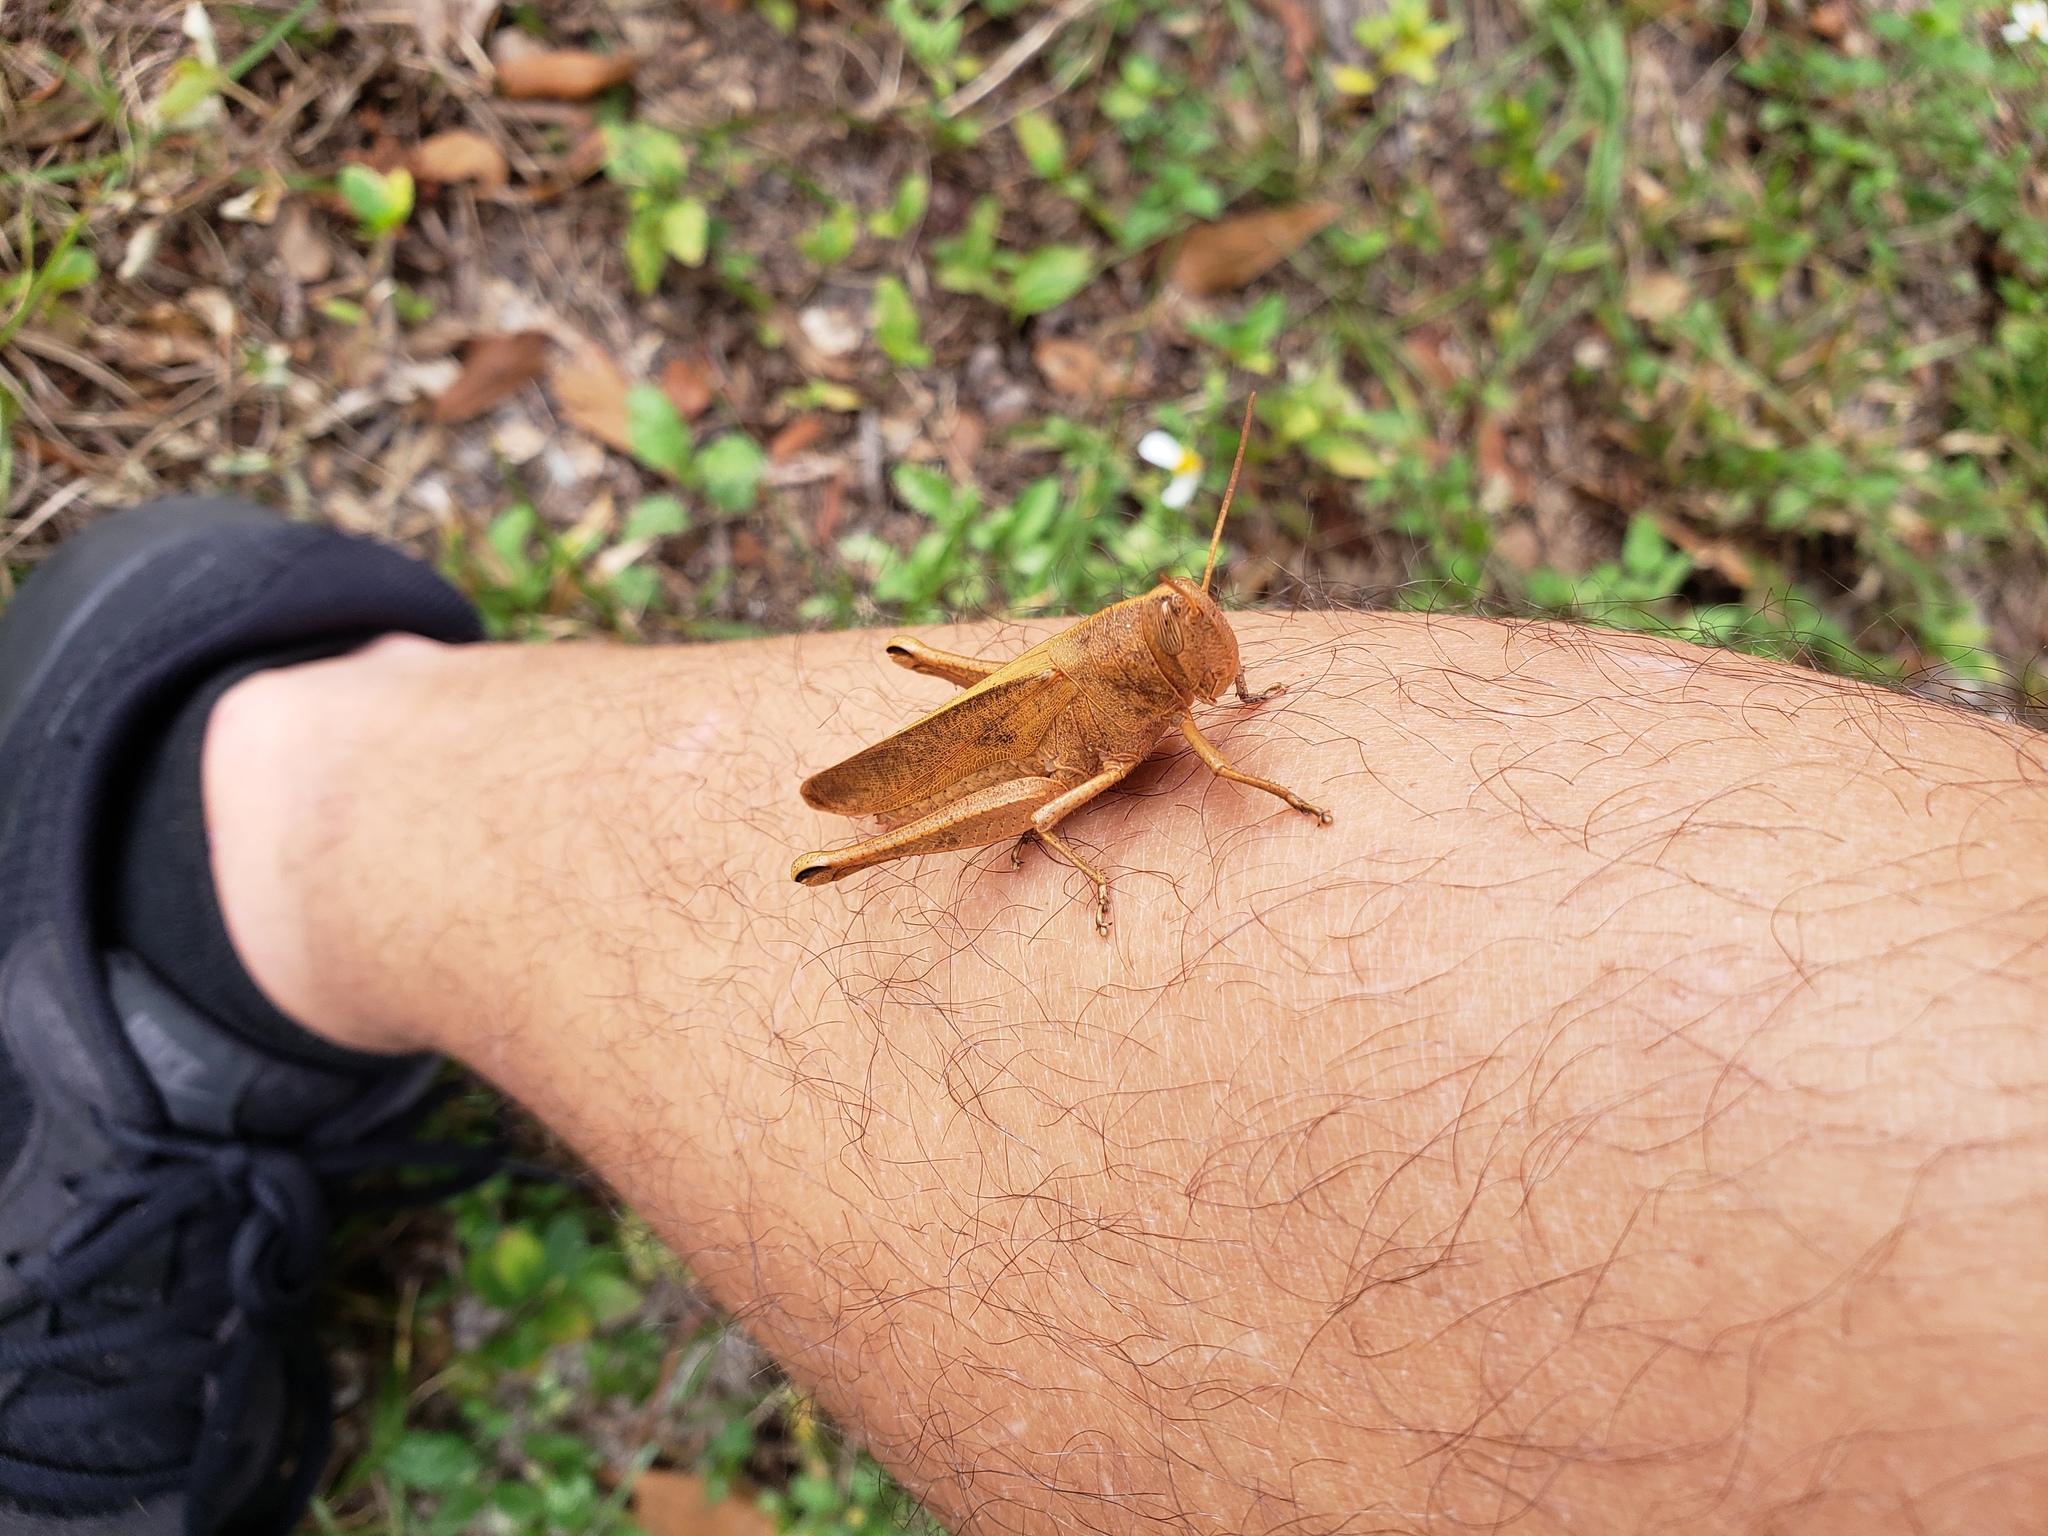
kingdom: Animalia
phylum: Arthropoda
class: Insecta
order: Orthoptera
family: Acrididae
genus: Schistocerca
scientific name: Schistocerca damnifica
